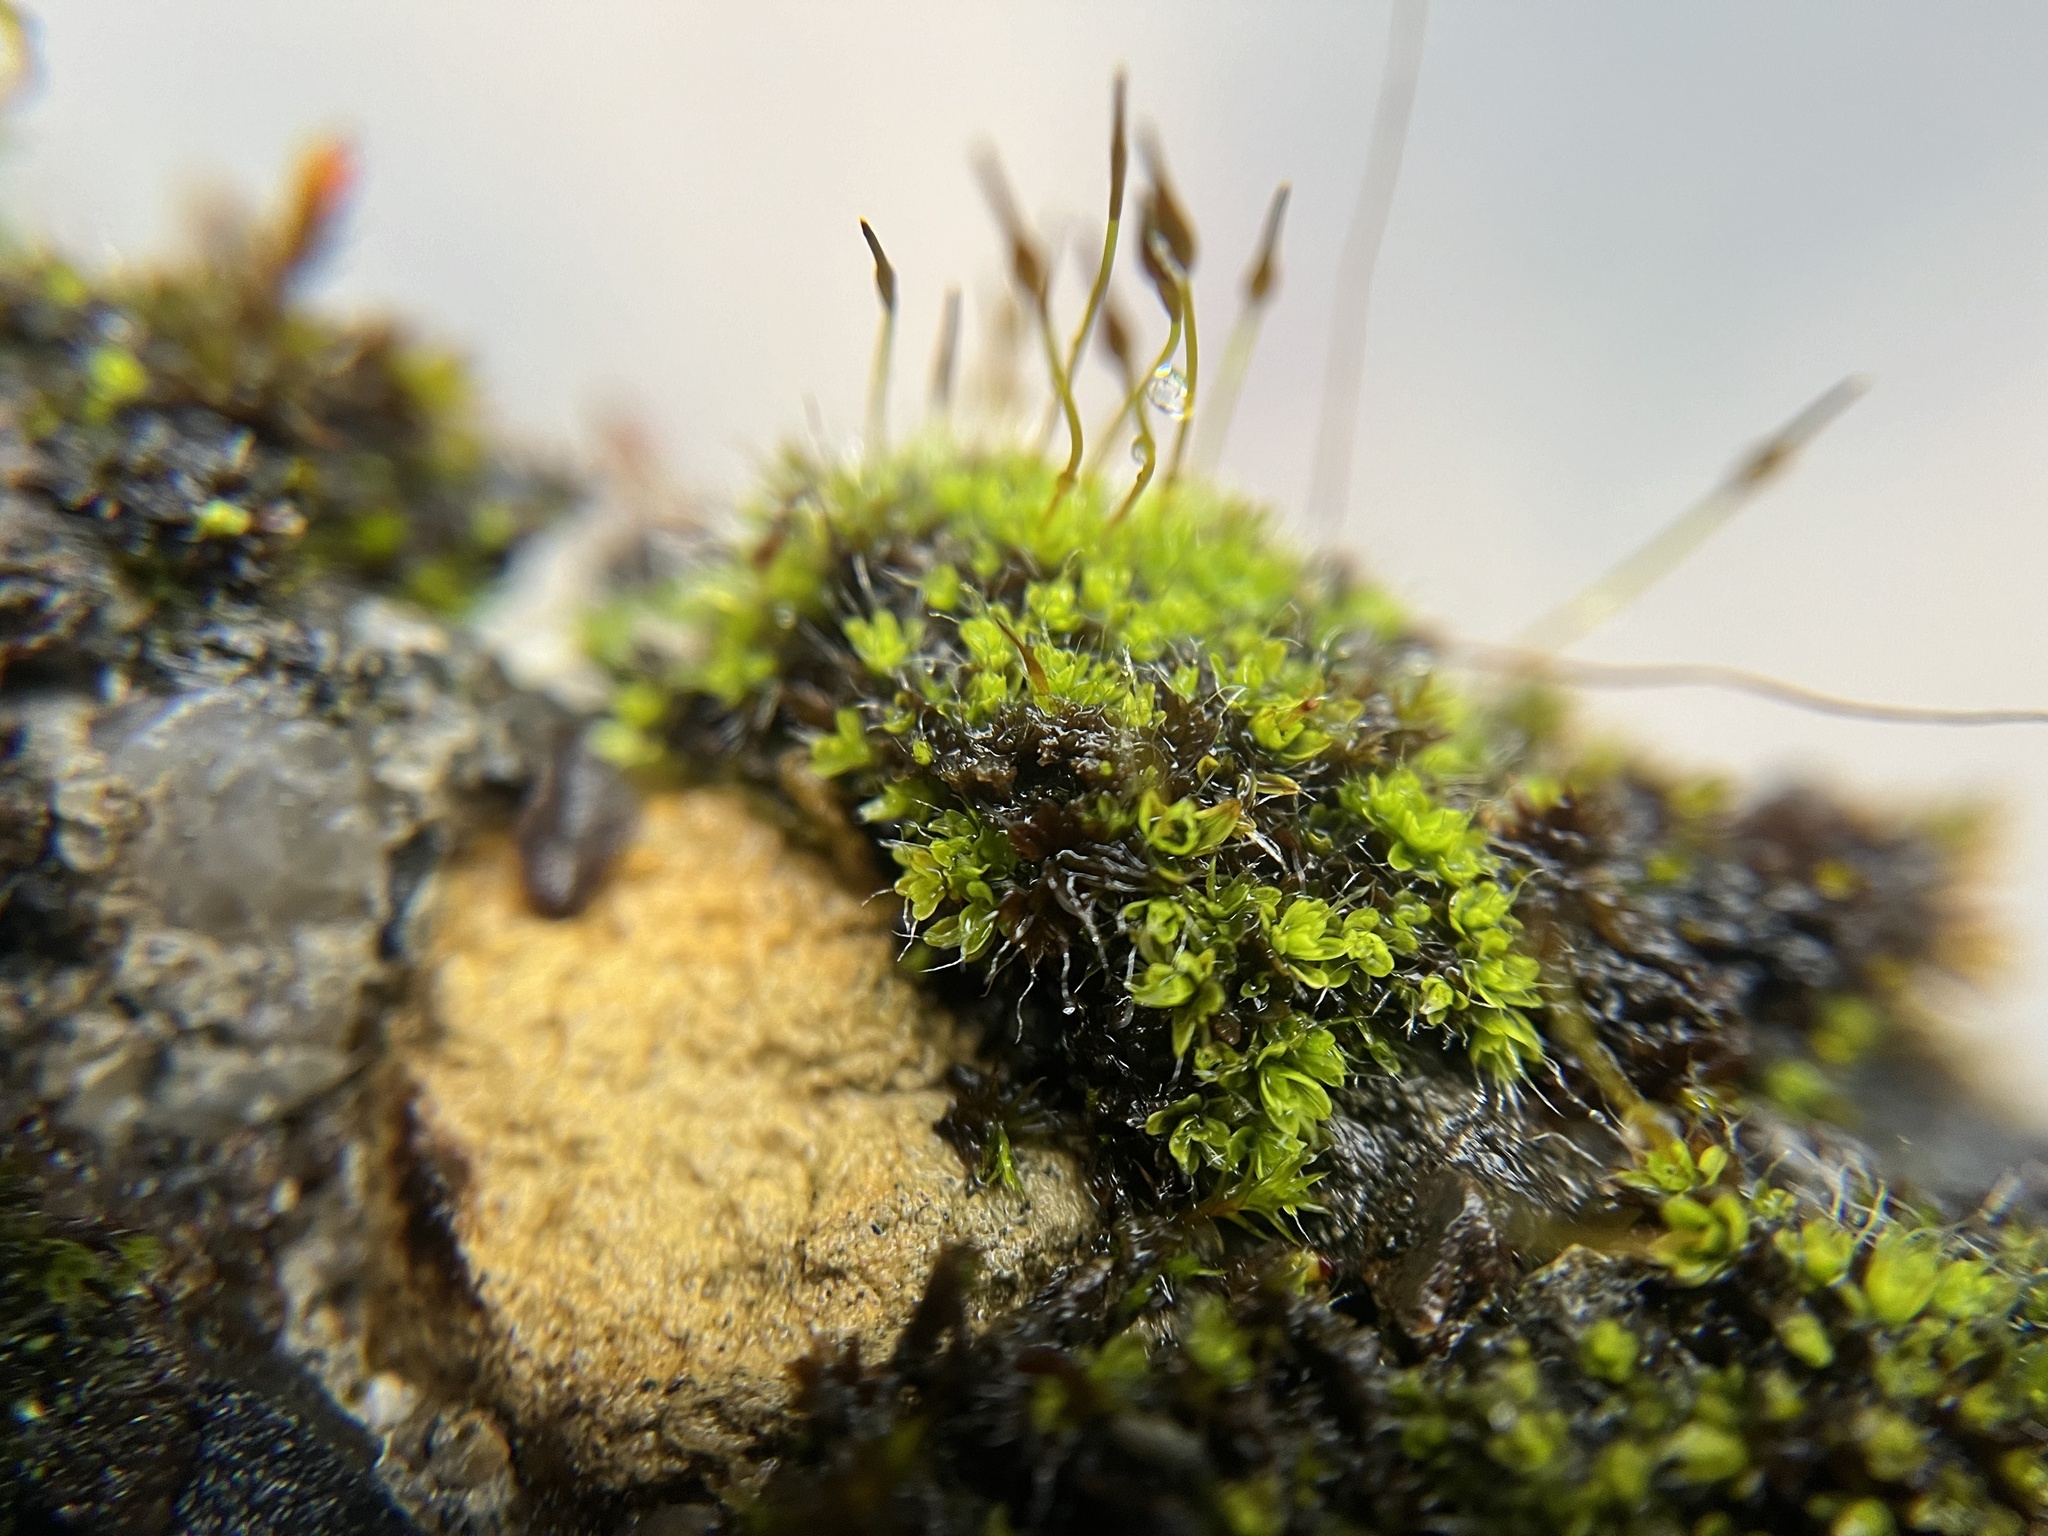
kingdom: Plantae
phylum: Bryophyta
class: Bryopsida
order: Pottiales
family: Pottiaceae
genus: Tortula
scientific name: Tortula muralis
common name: Wall screw-moss
